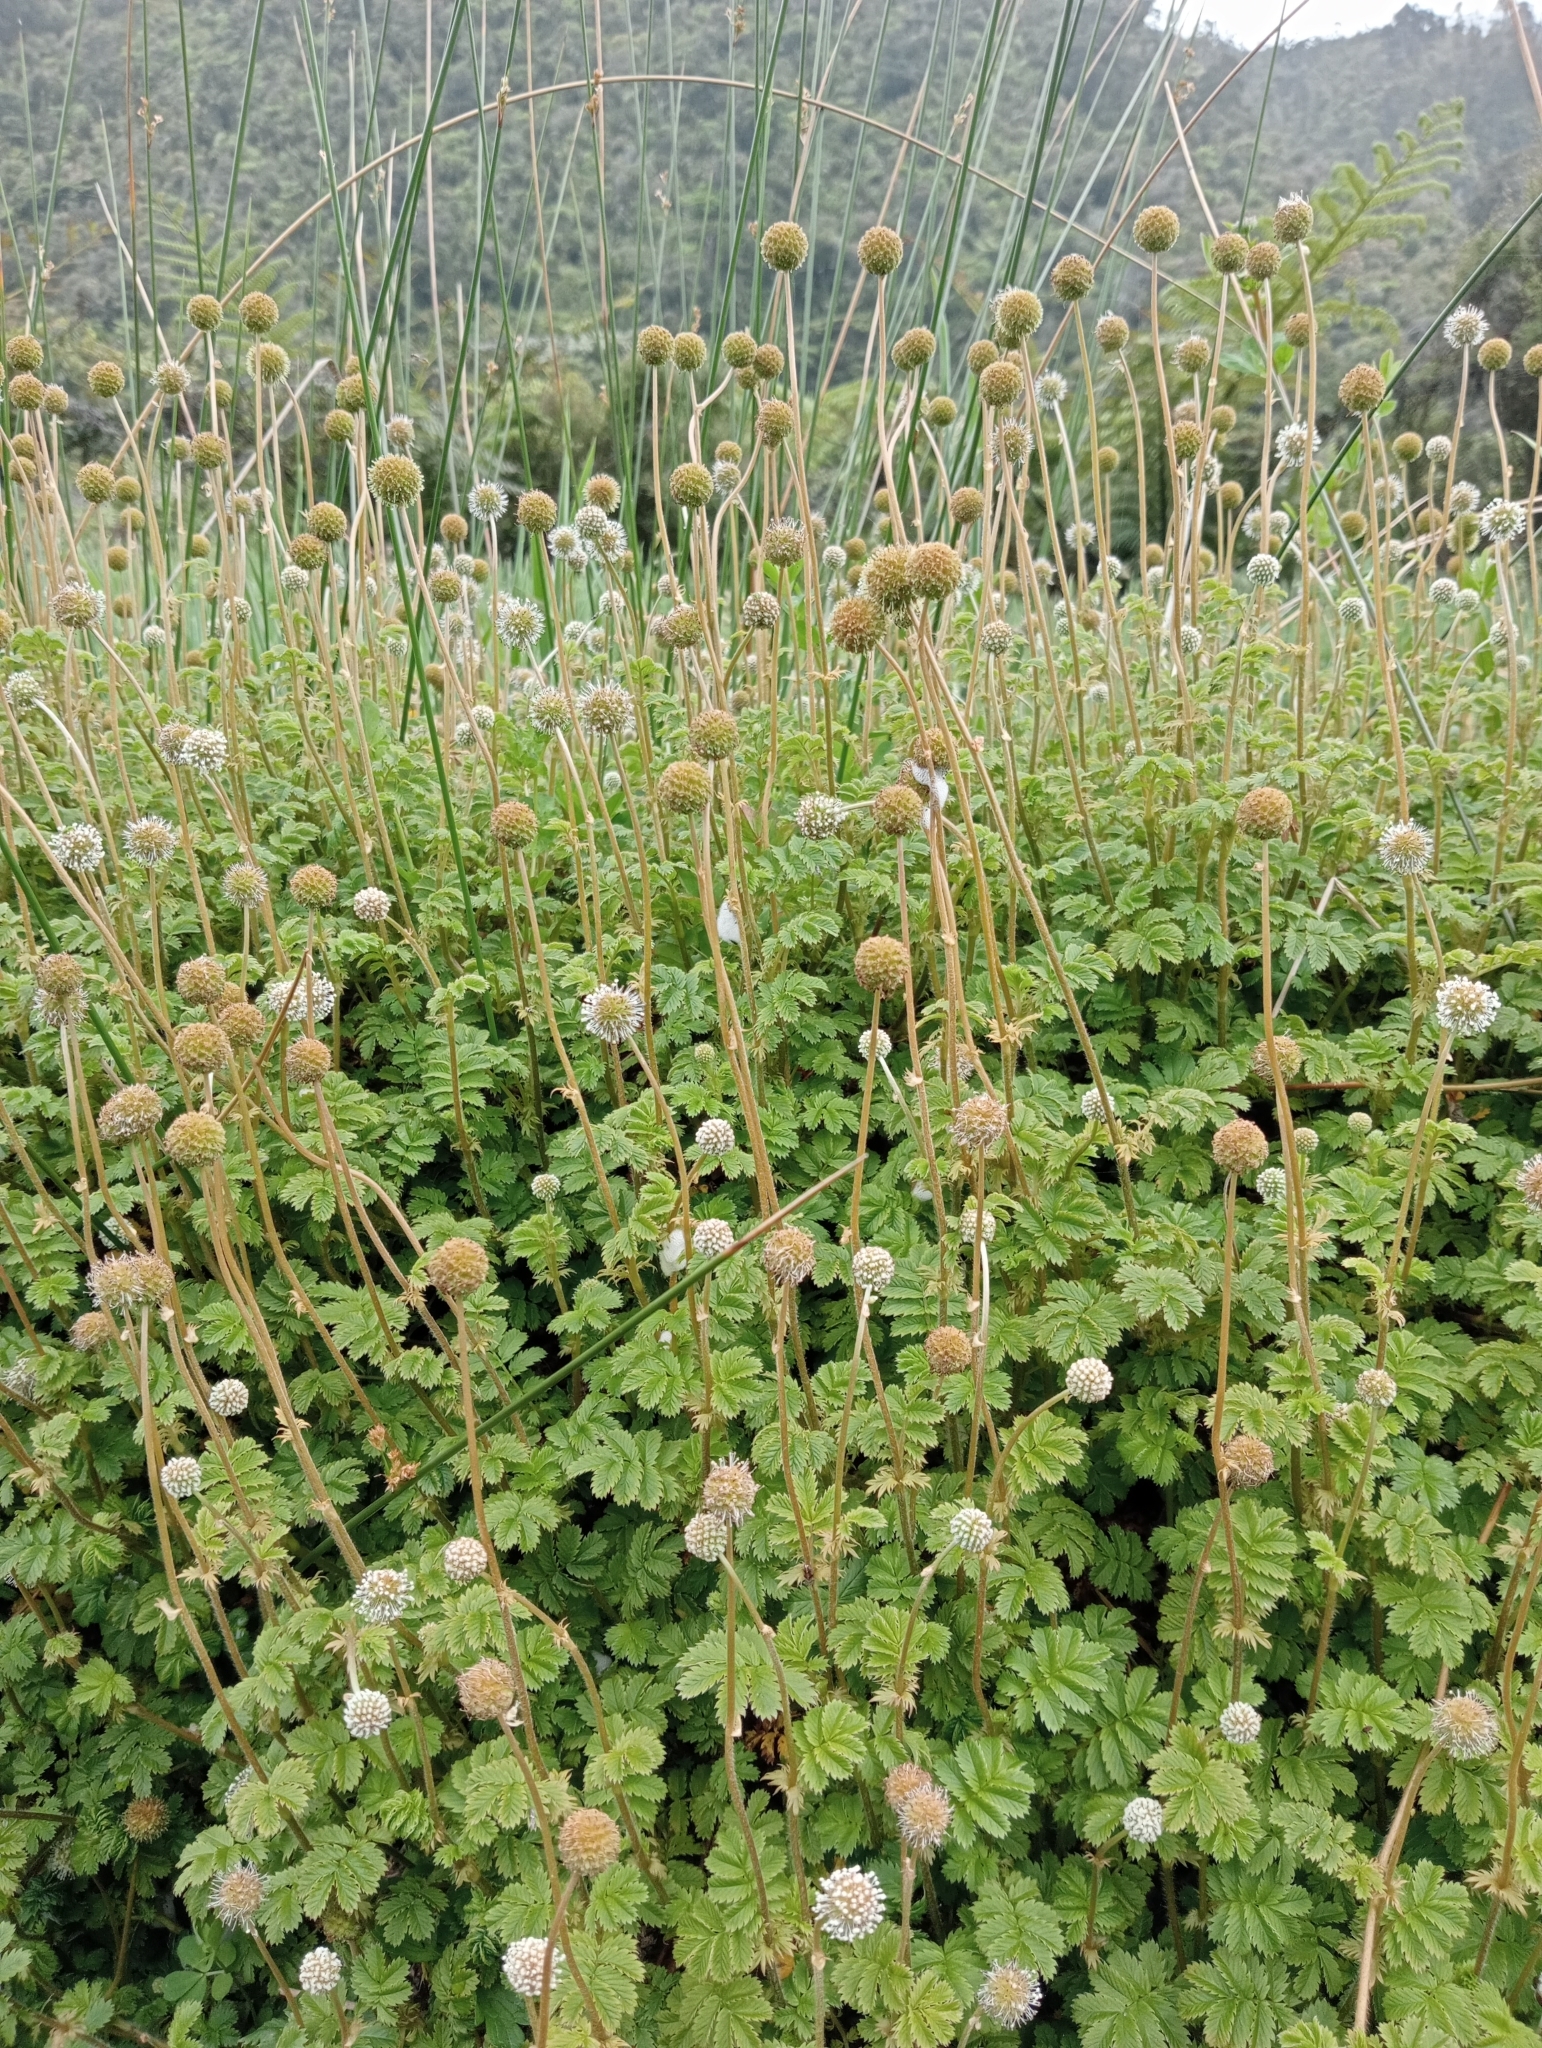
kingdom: Plantae
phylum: Tracheophyta
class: Magnoliopsida
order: Rosales
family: Rosaceae
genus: Acaena
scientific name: Acaena anserinifolia
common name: Bronze pirri-pirri-bur
